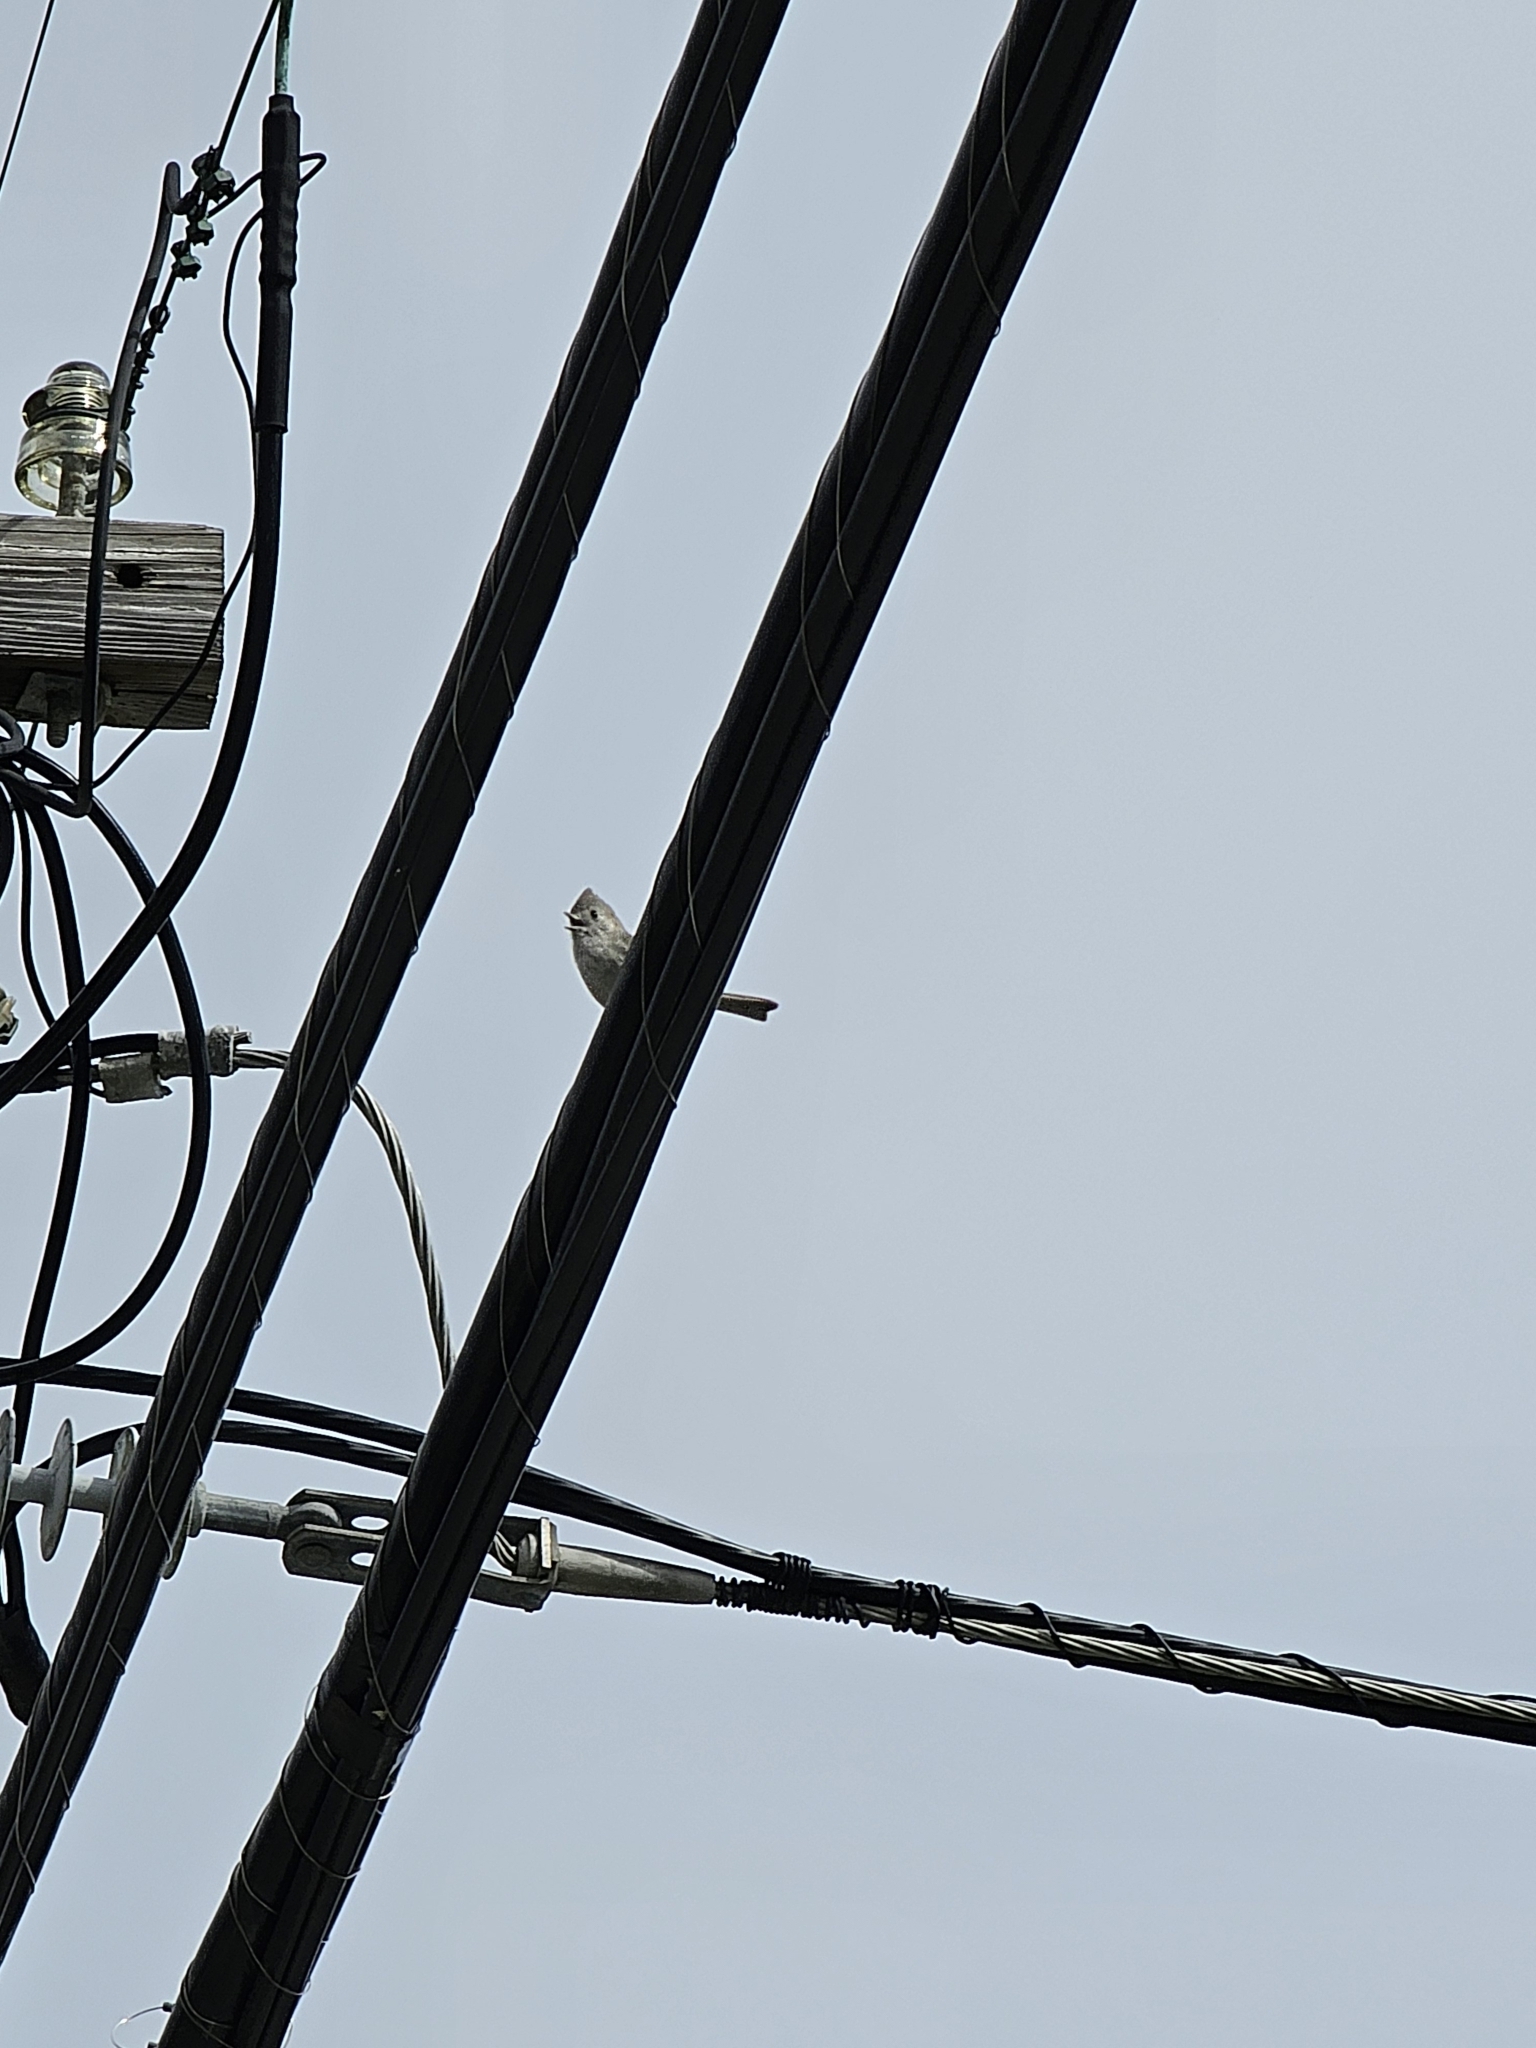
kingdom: Animalia
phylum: Chordata
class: Aves
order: Passeriformes
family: Paridae
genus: Baeolophus
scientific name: Baeolophus inornatus
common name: Oak titmouse
